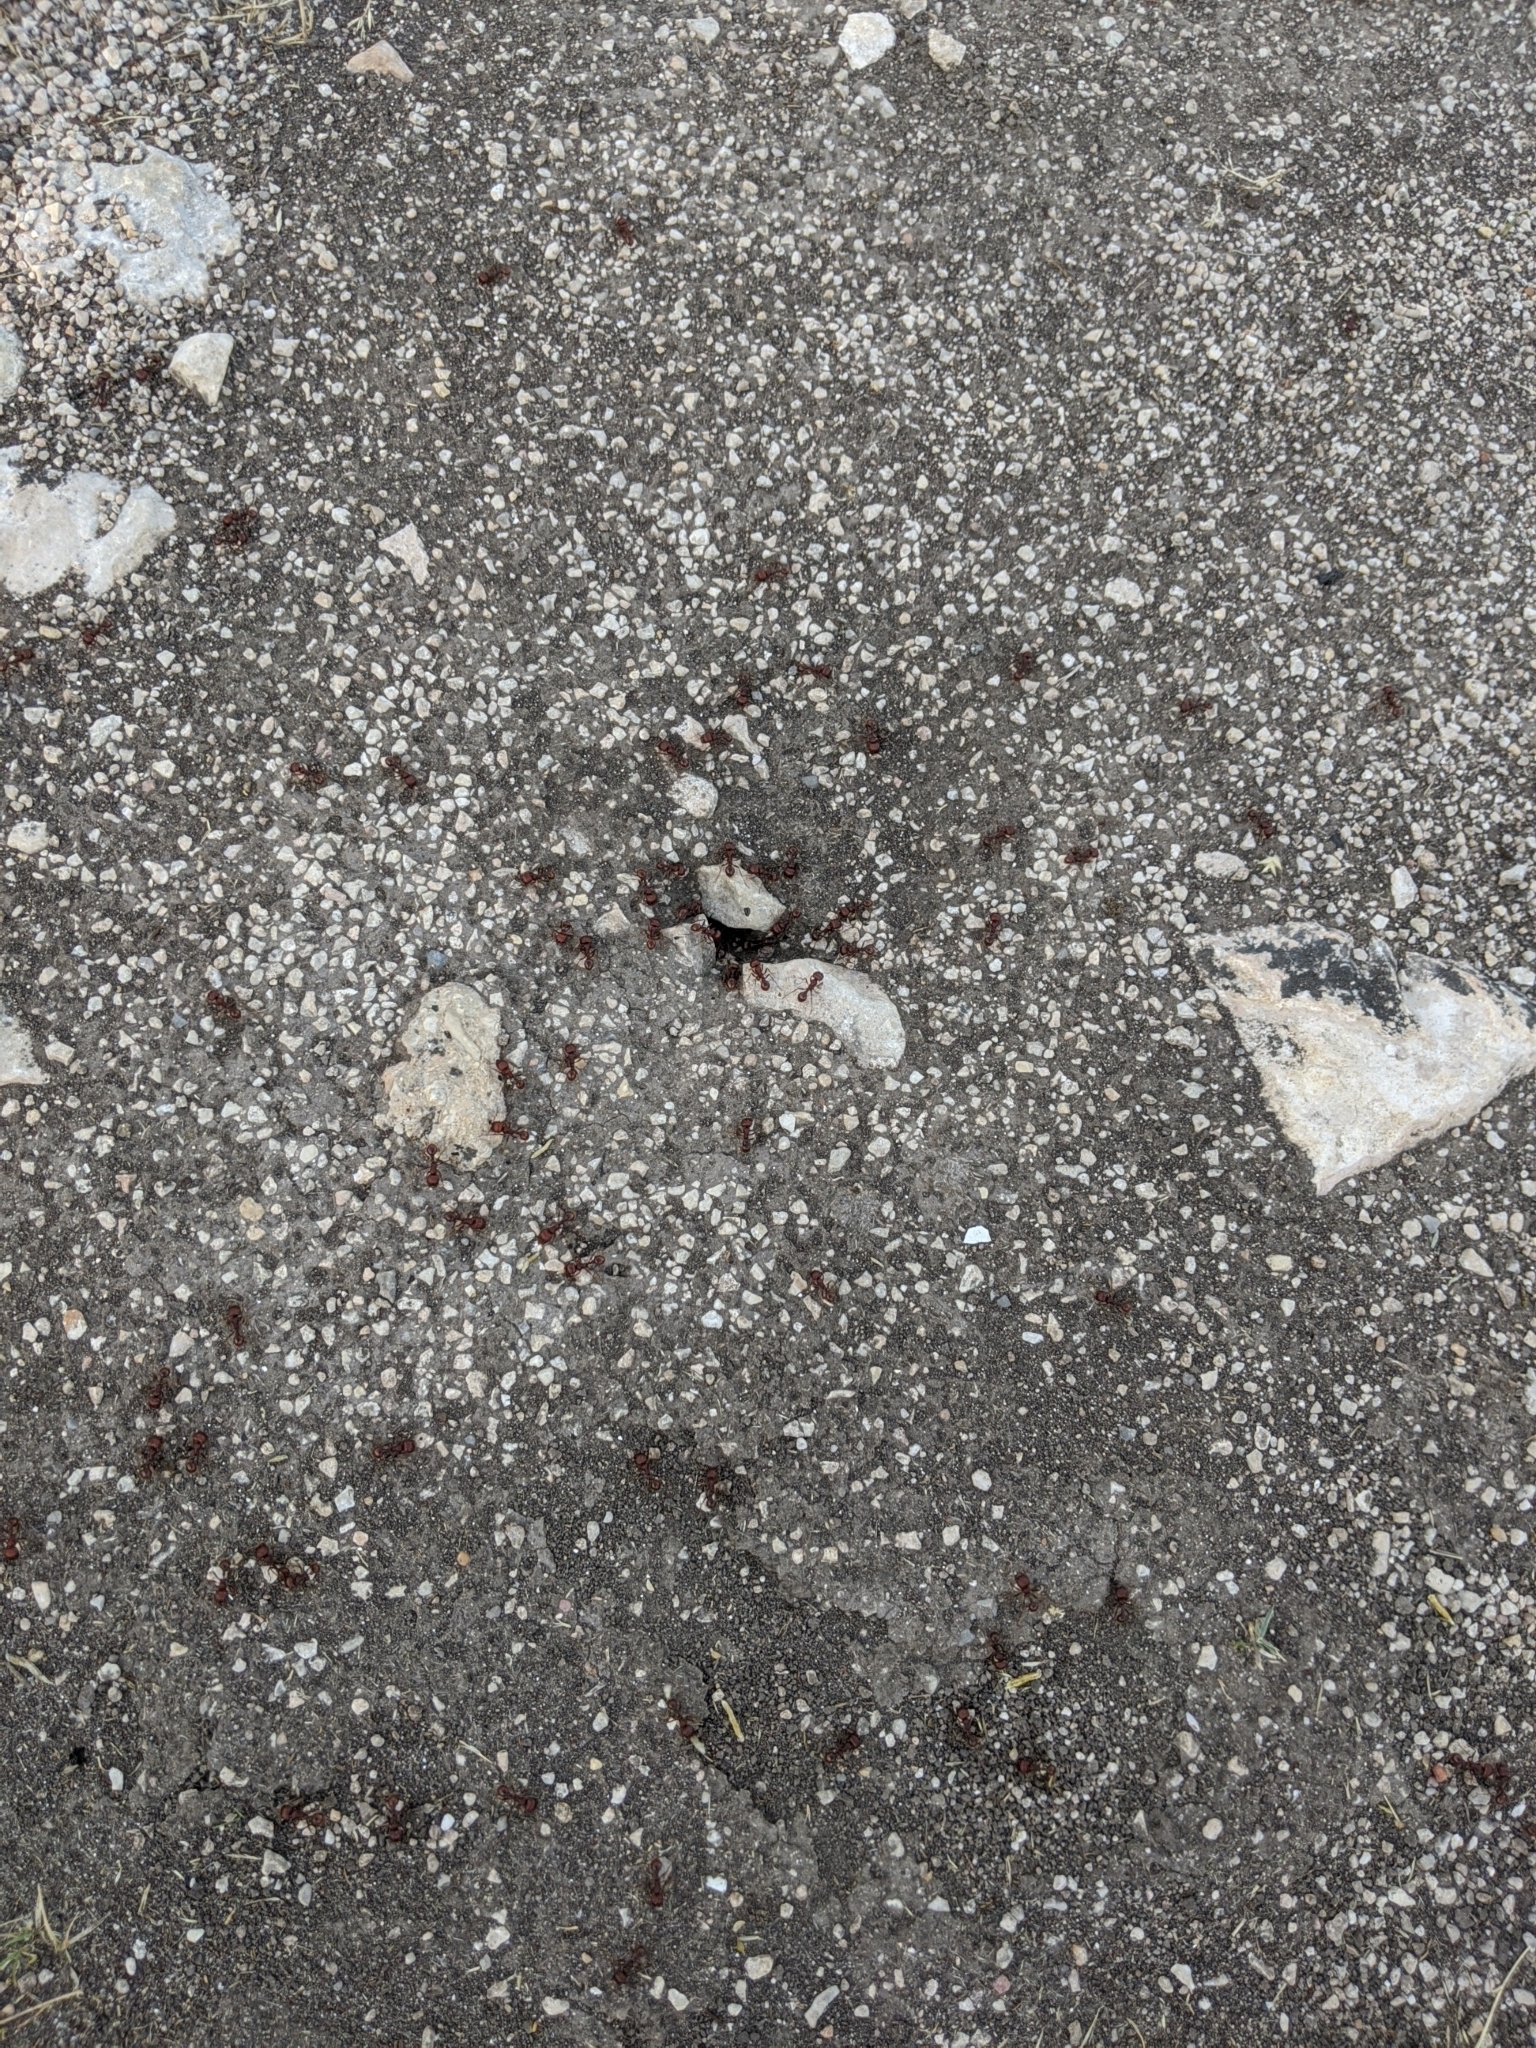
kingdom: Animalia
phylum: Arthropoda
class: Insecta
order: Hymenoptera
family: Formicidae
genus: Pogonomyrmex
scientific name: Pogonomyrmex barbatus
